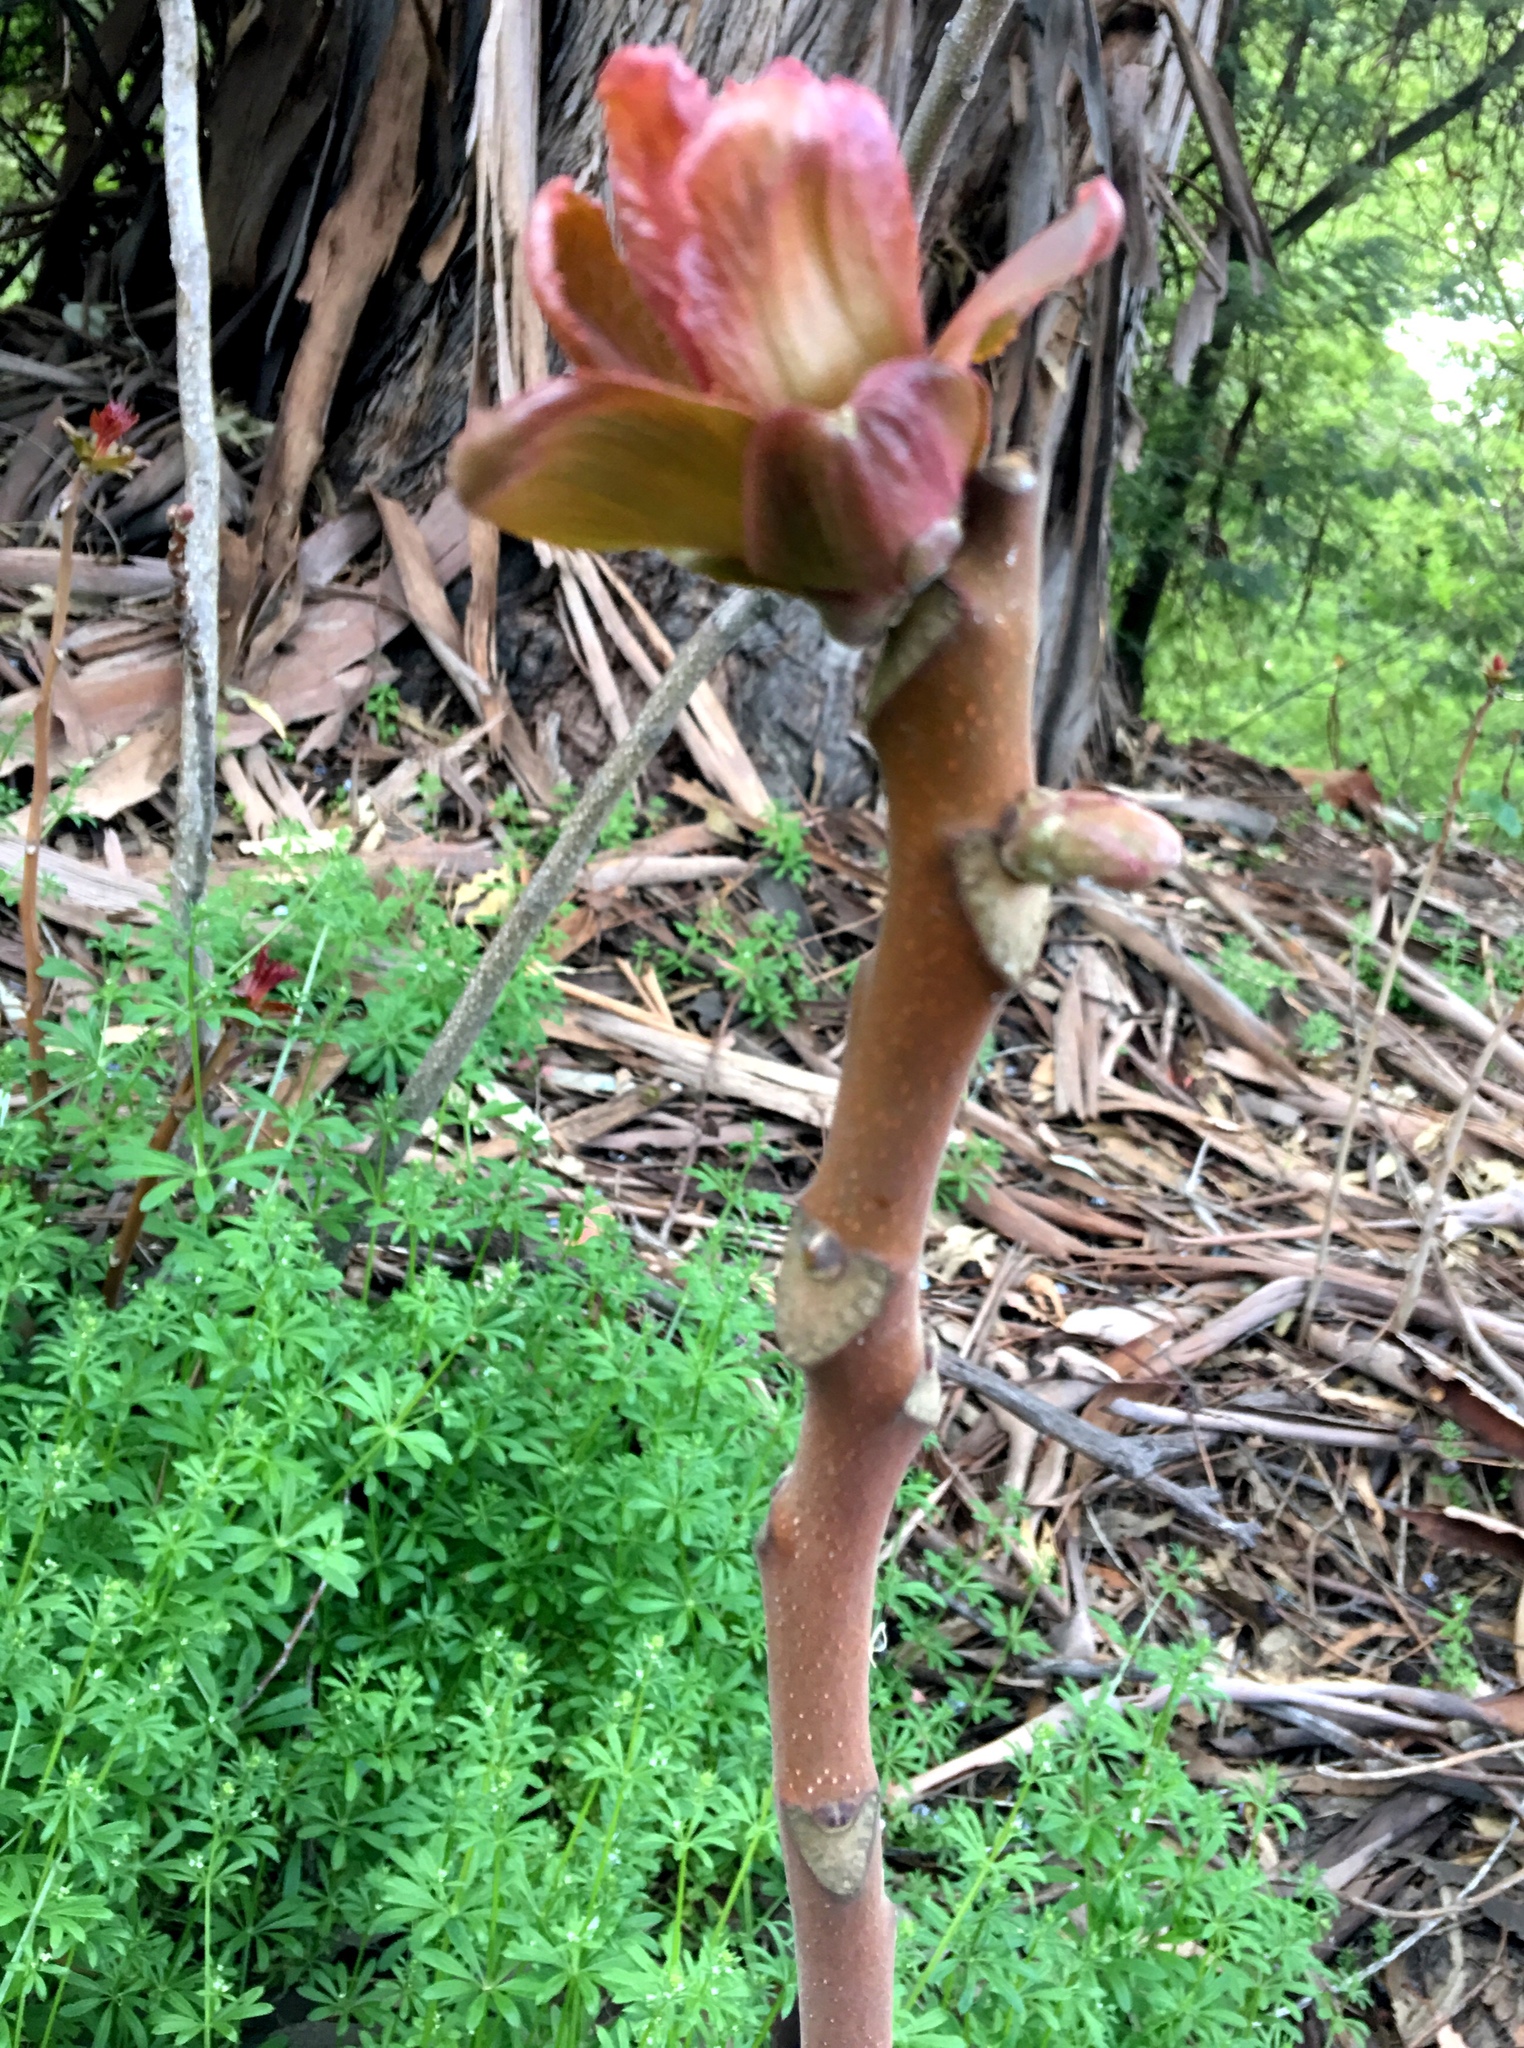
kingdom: Plantae
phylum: Tracheophyta
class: Magnoliopsida
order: Sapindales
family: Simaroubaceae
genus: Ailanthus
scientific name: Ailanthus altissima
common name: Tree-of-heaven
